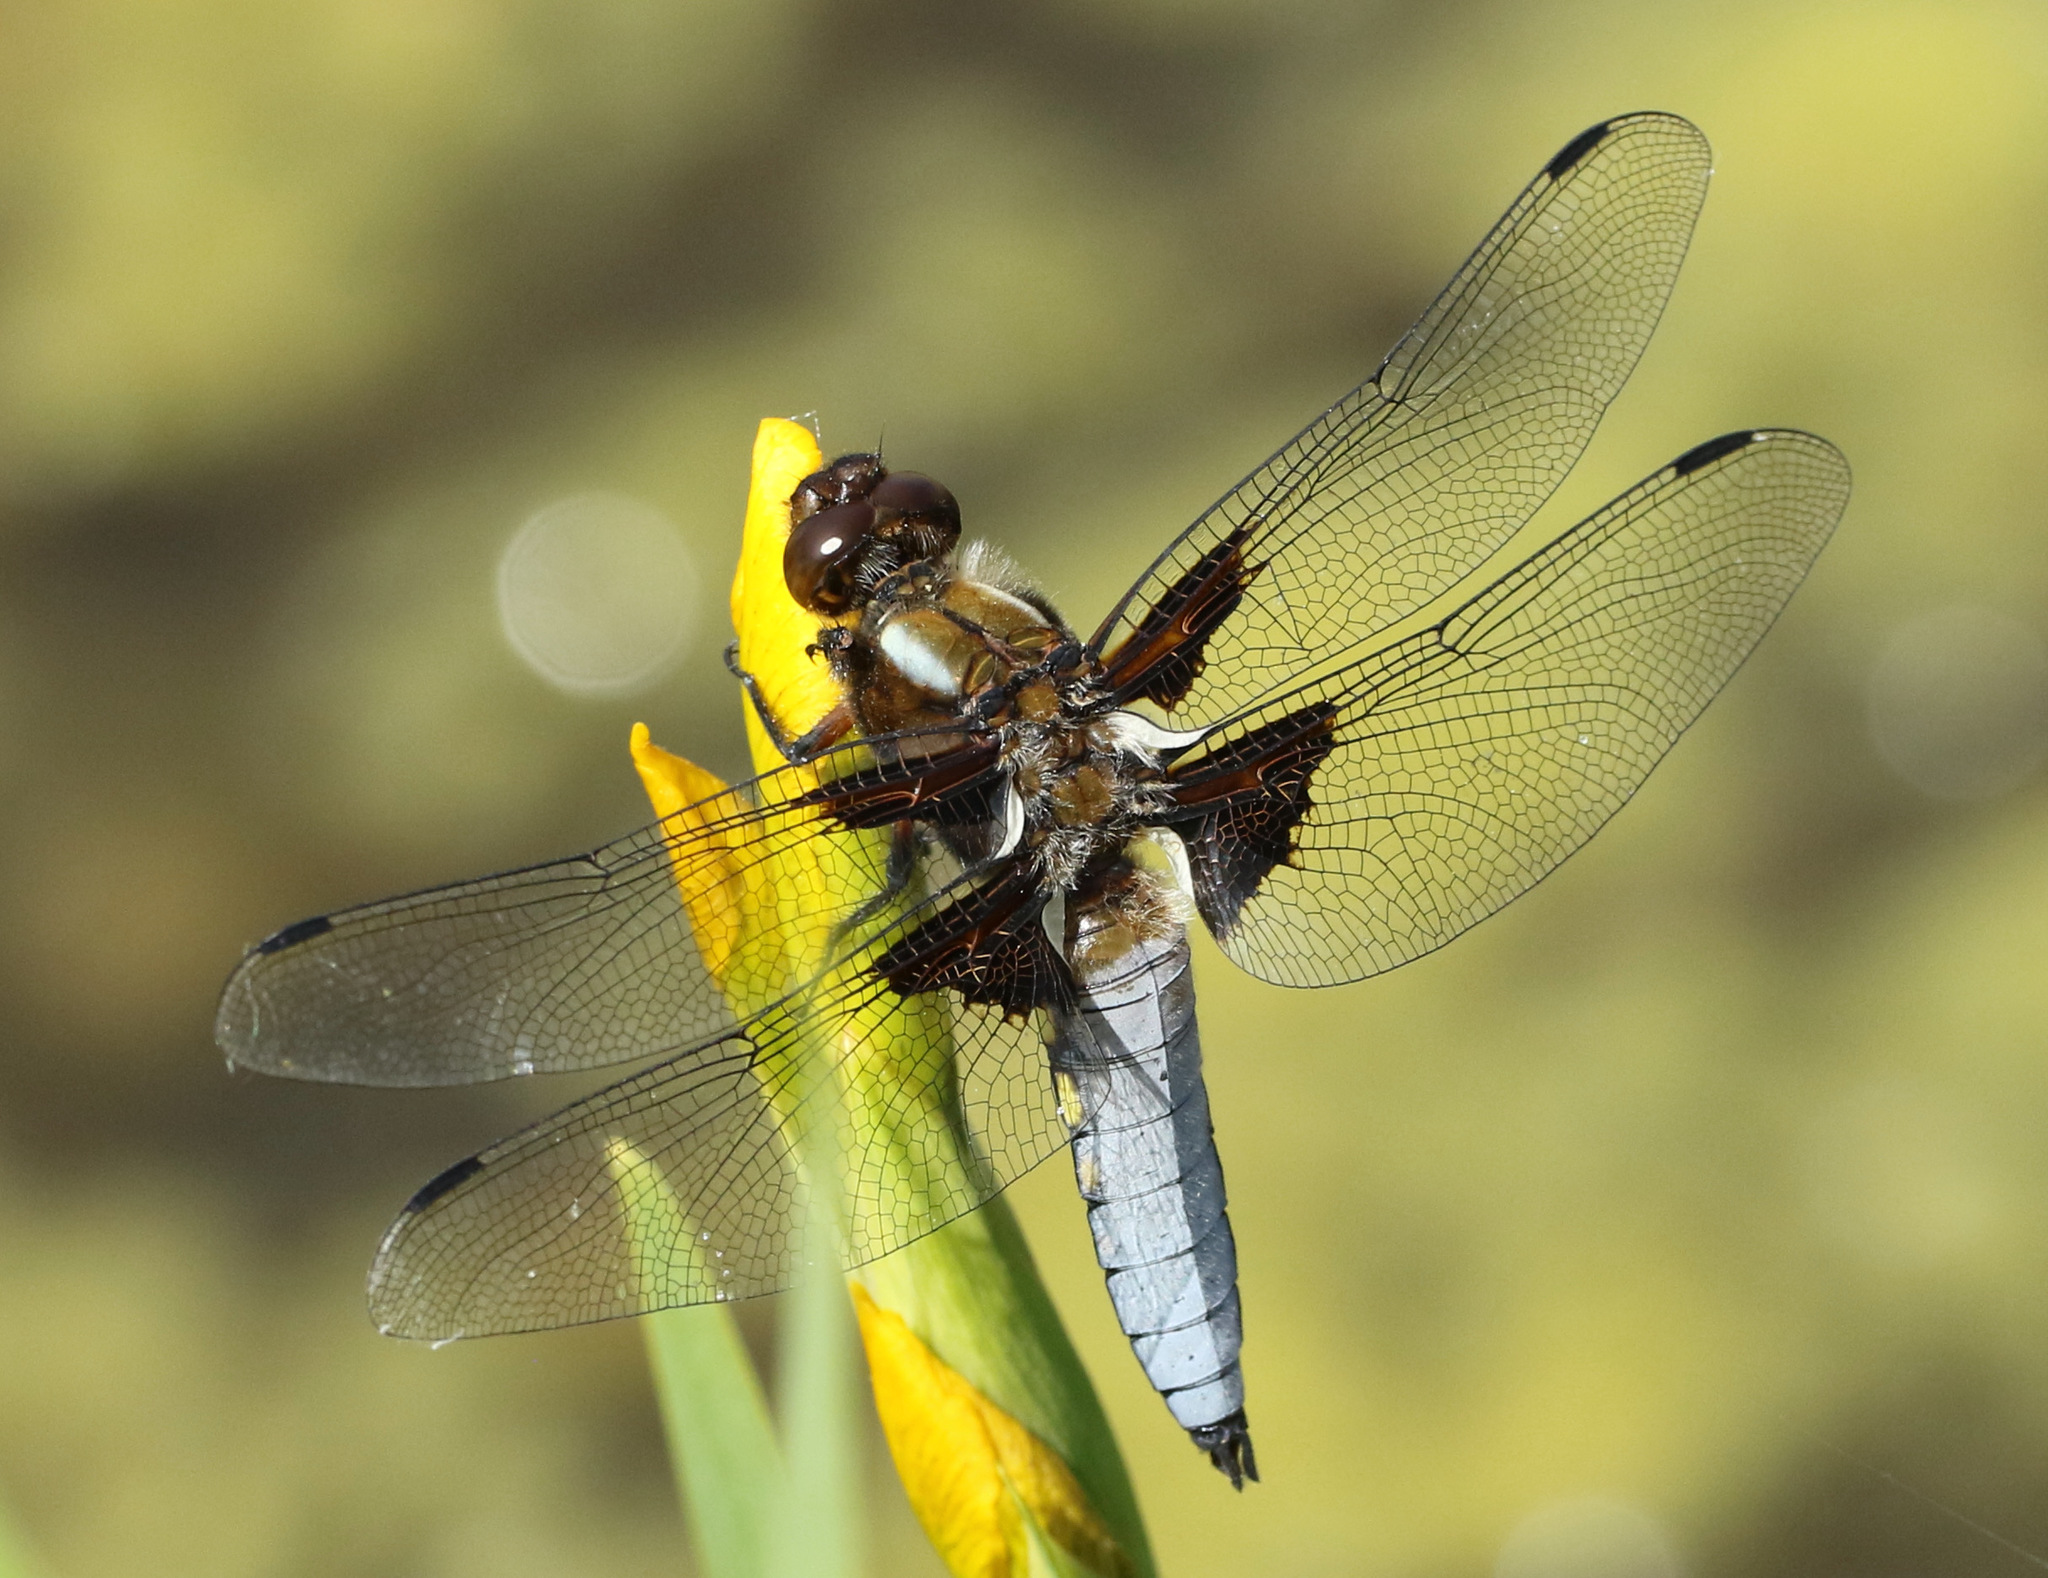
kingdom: Animalia
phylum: Arthropoda
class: Insecta
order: Odonata
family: Libellulidae
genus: Libellula
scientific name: Libellula depressa
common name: Broad-bodied chaser
